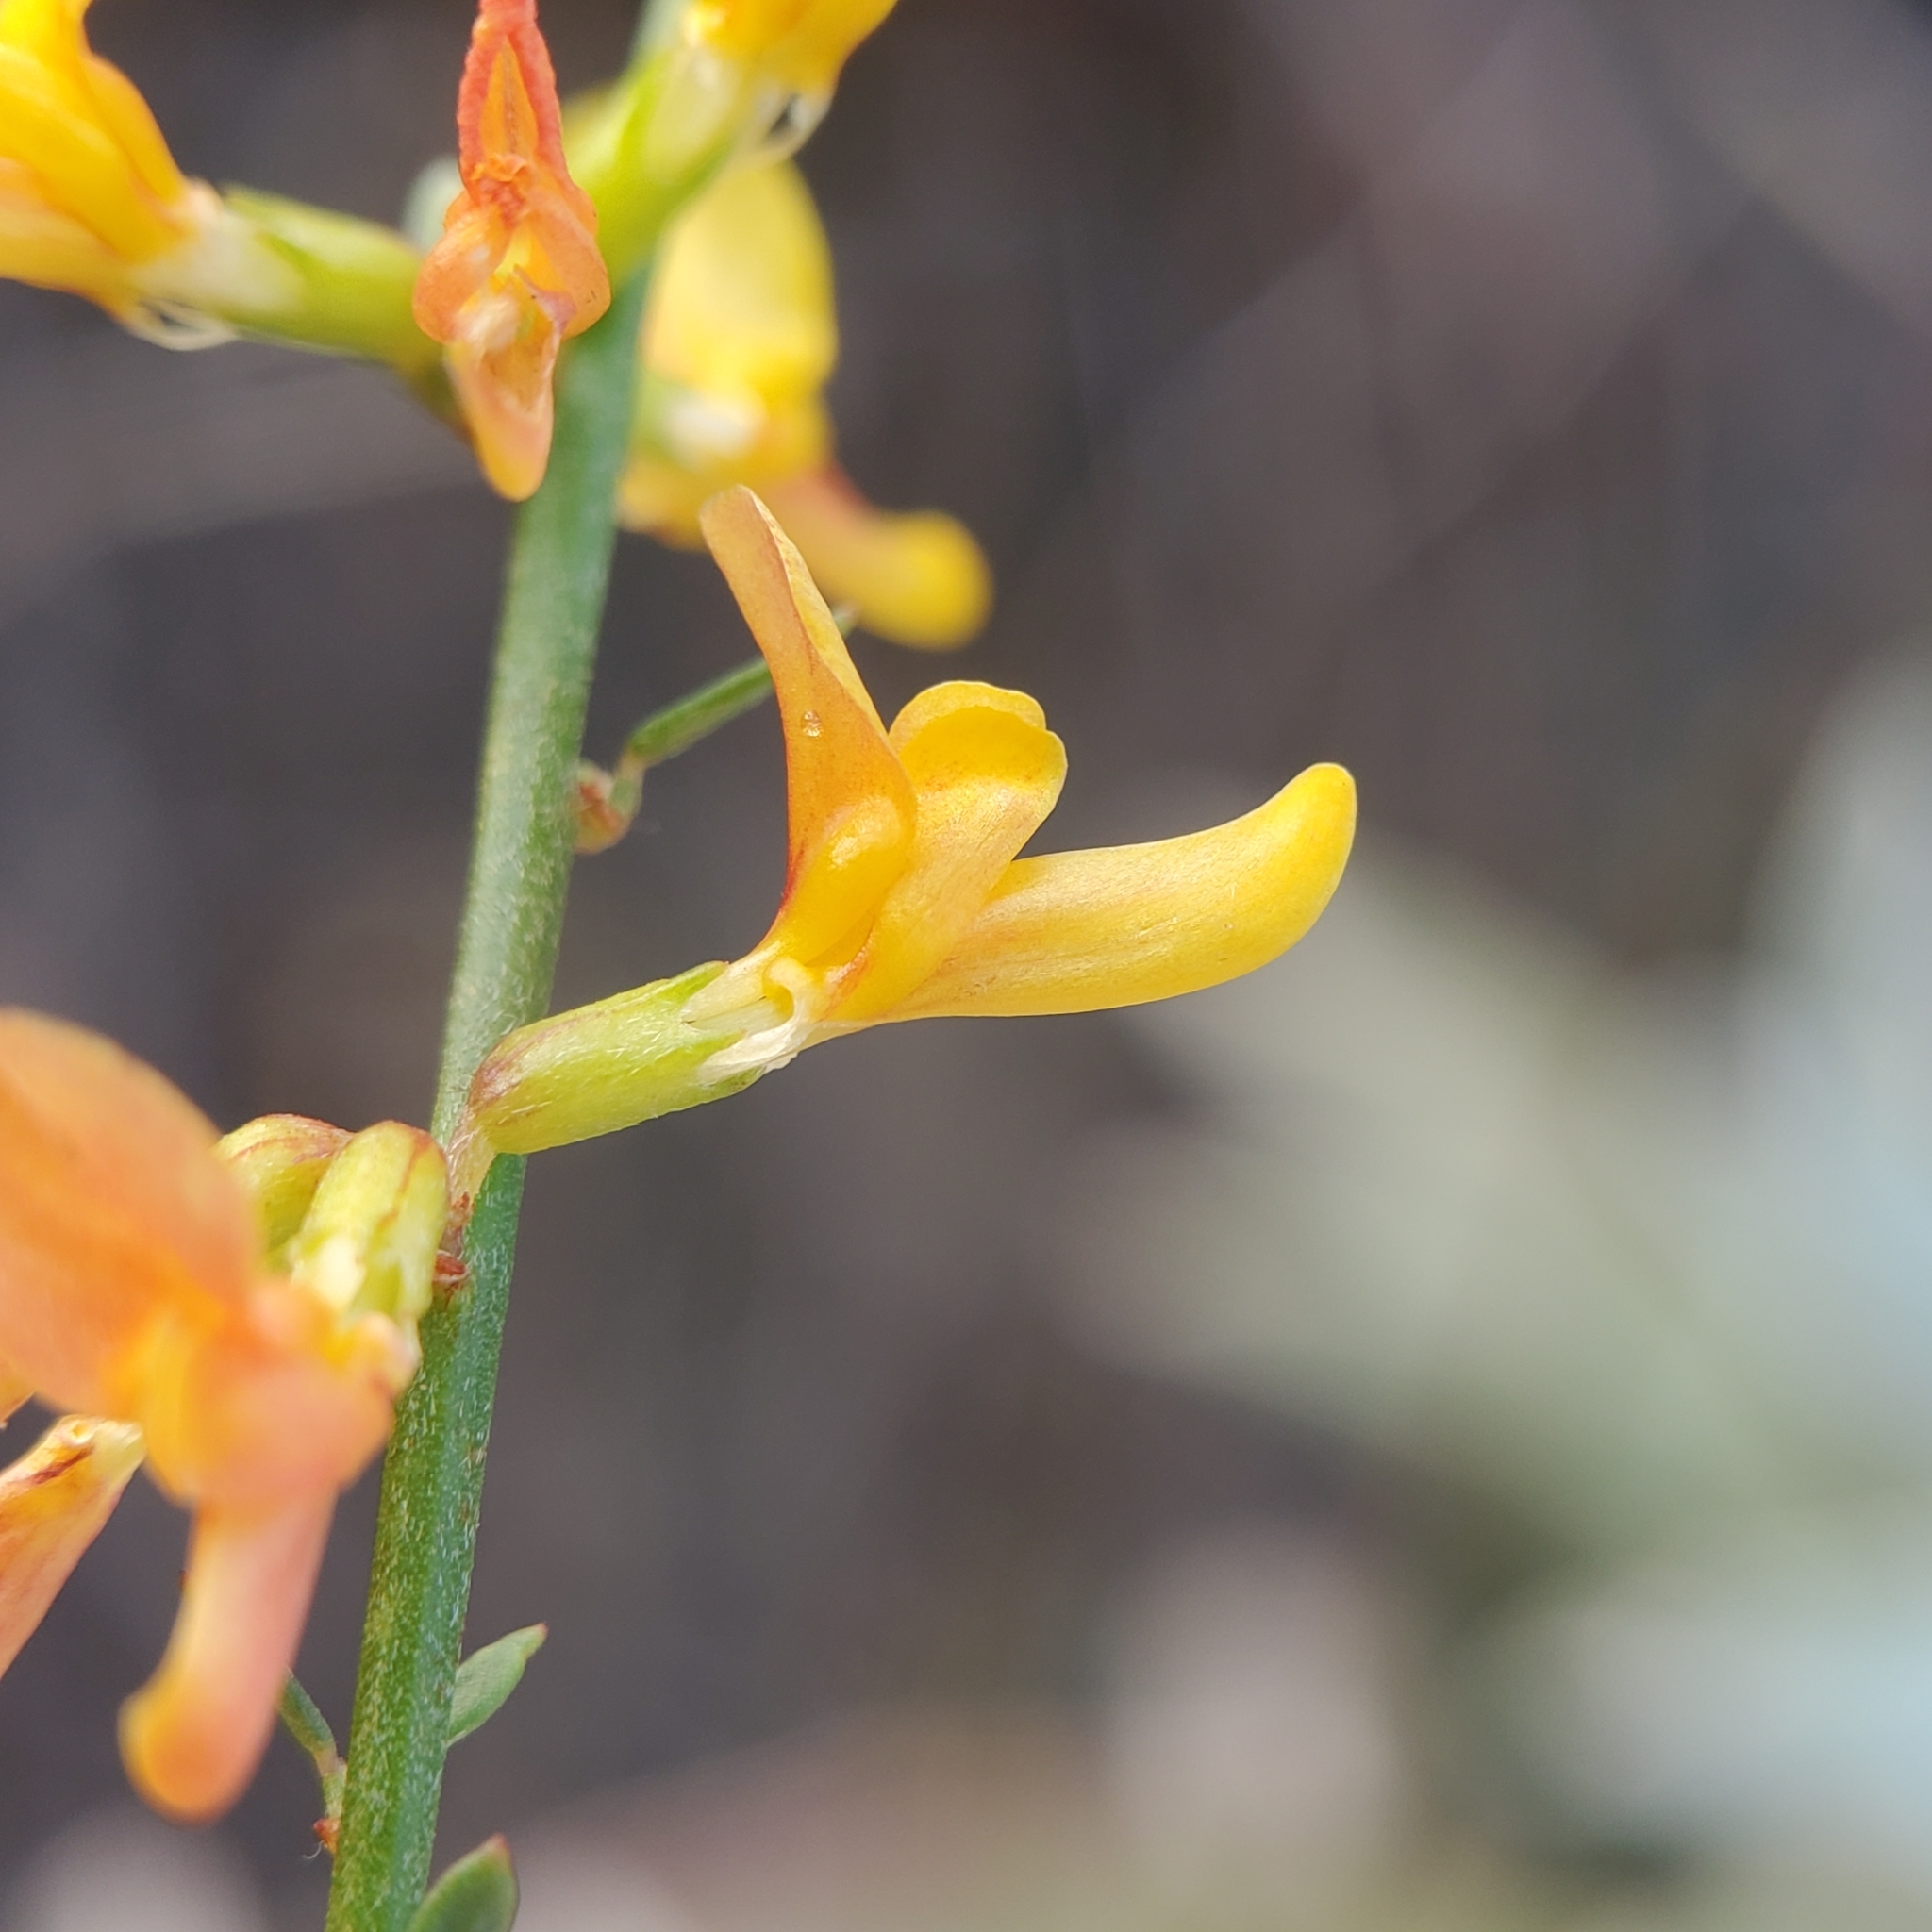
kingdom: Plantae
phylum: Tracheophyta
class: Magnoliopsida
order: Fabales
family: Fabaceae
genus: Acmispon
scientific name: Acmispon glaber
